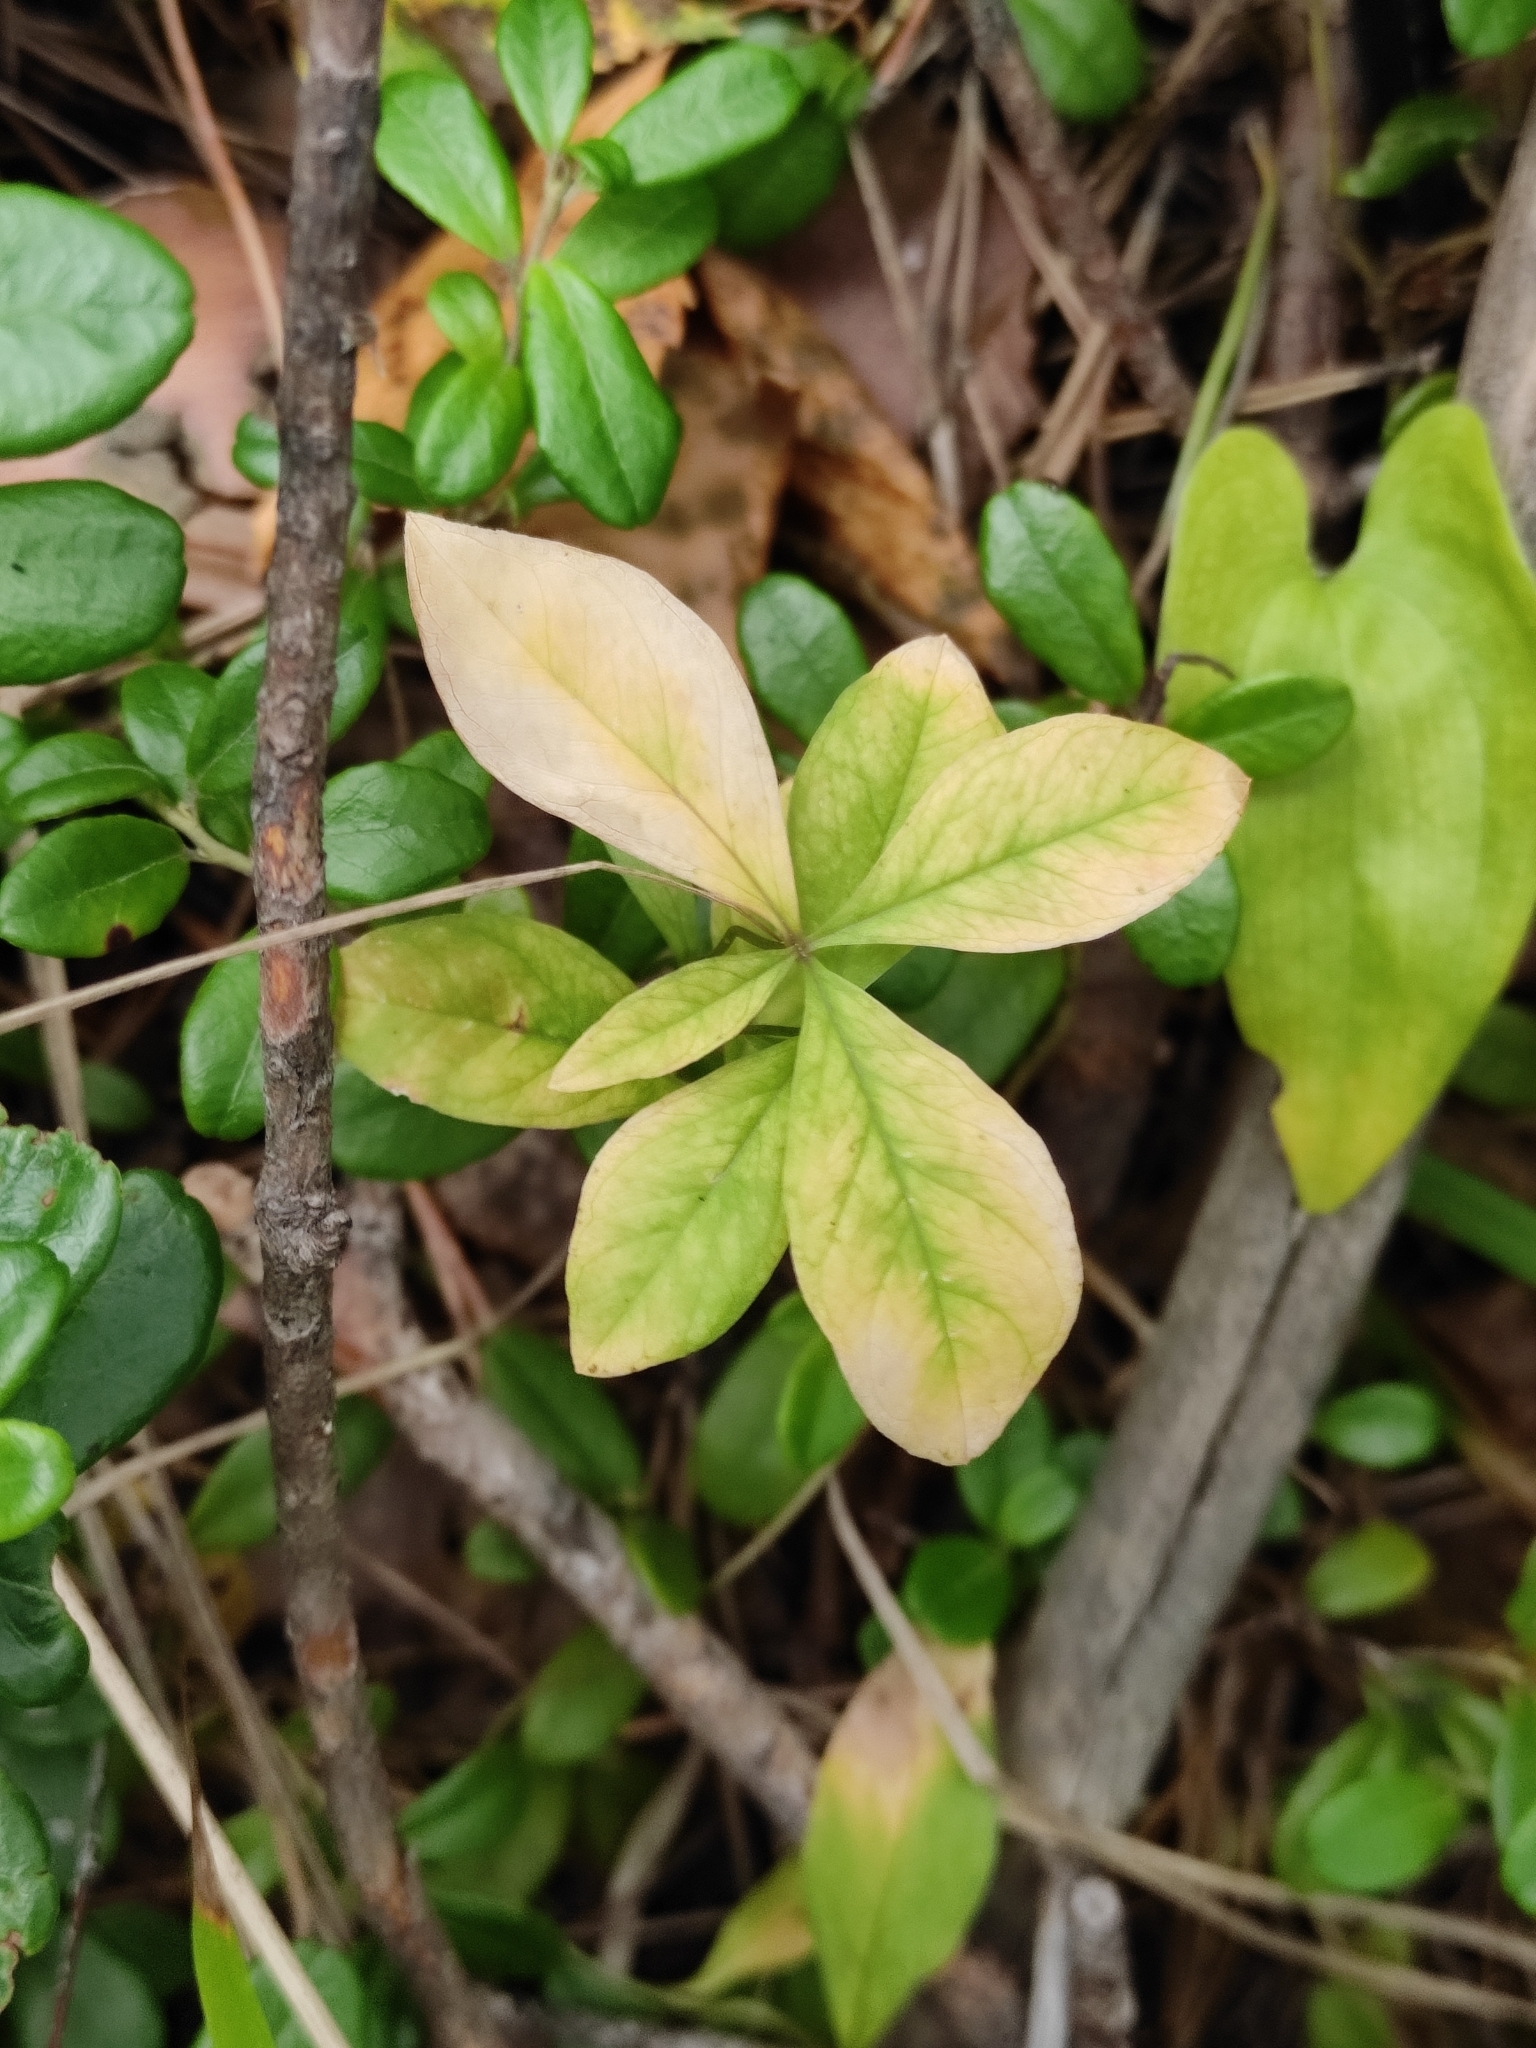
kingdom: Plantae
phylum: Tracheophyta
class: Magnoliopsida
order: Ericales
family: Primulaceae
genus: Lysimachia
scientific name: Lysimachia europaea
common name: Arctic starflower
